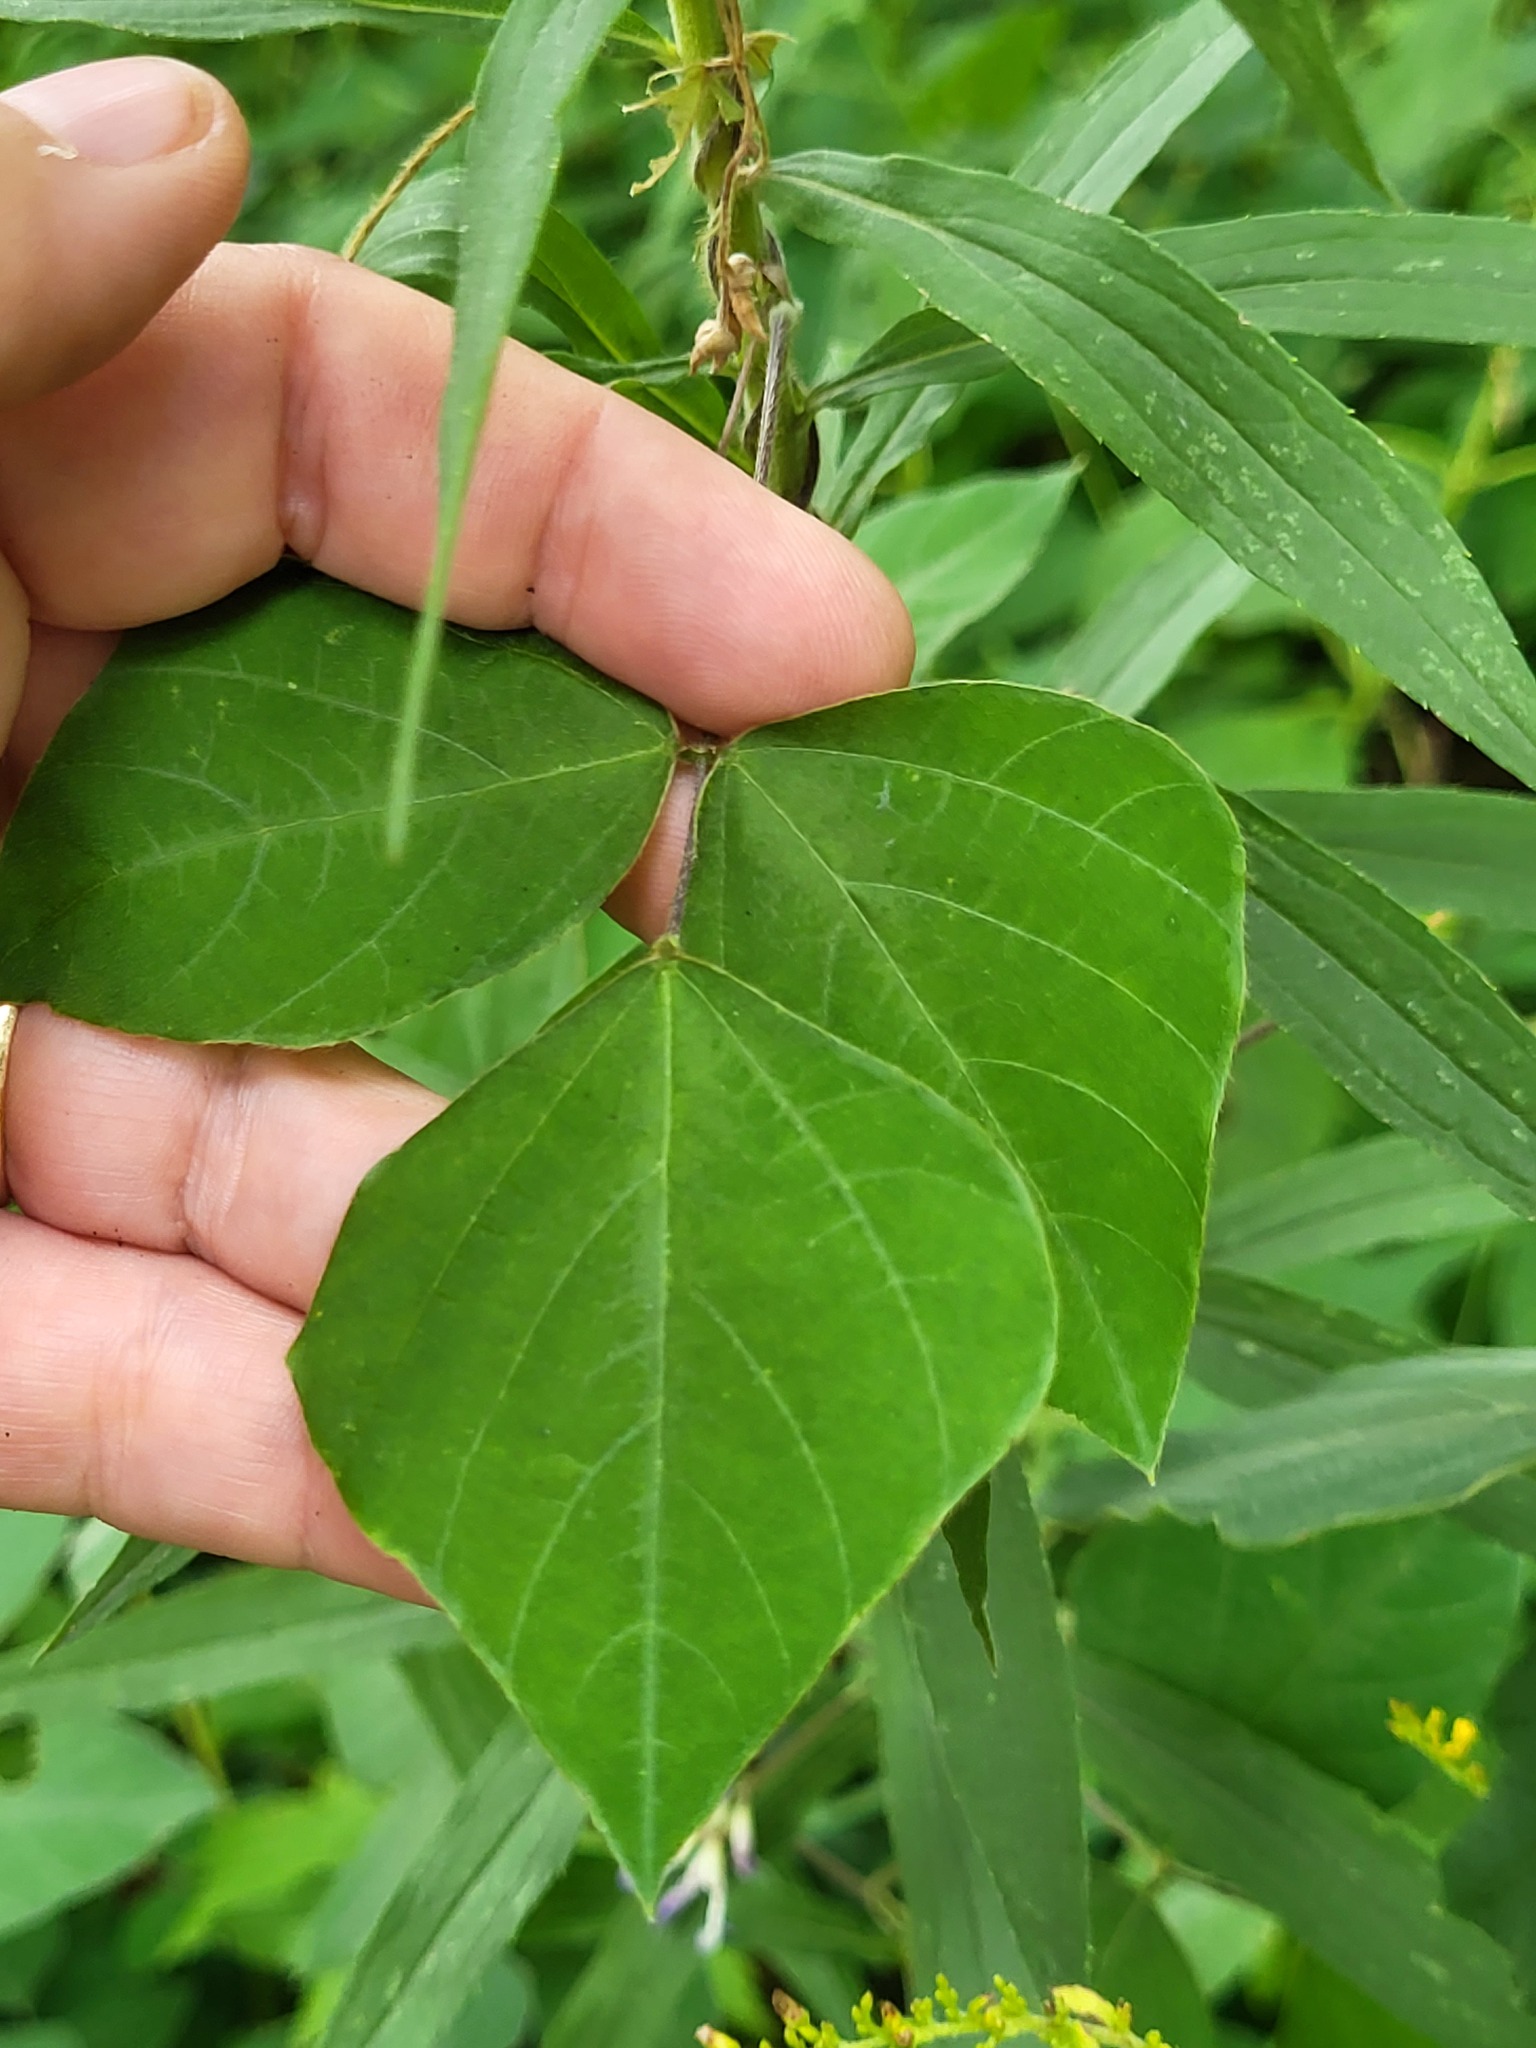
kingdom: Plantae
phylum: Tracheophyta
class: Magnoliopsida
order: Fabales
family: Fabaceae
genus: Amphicarpaea
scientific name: Amphicarpaea bracteata
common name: American hog peanut
